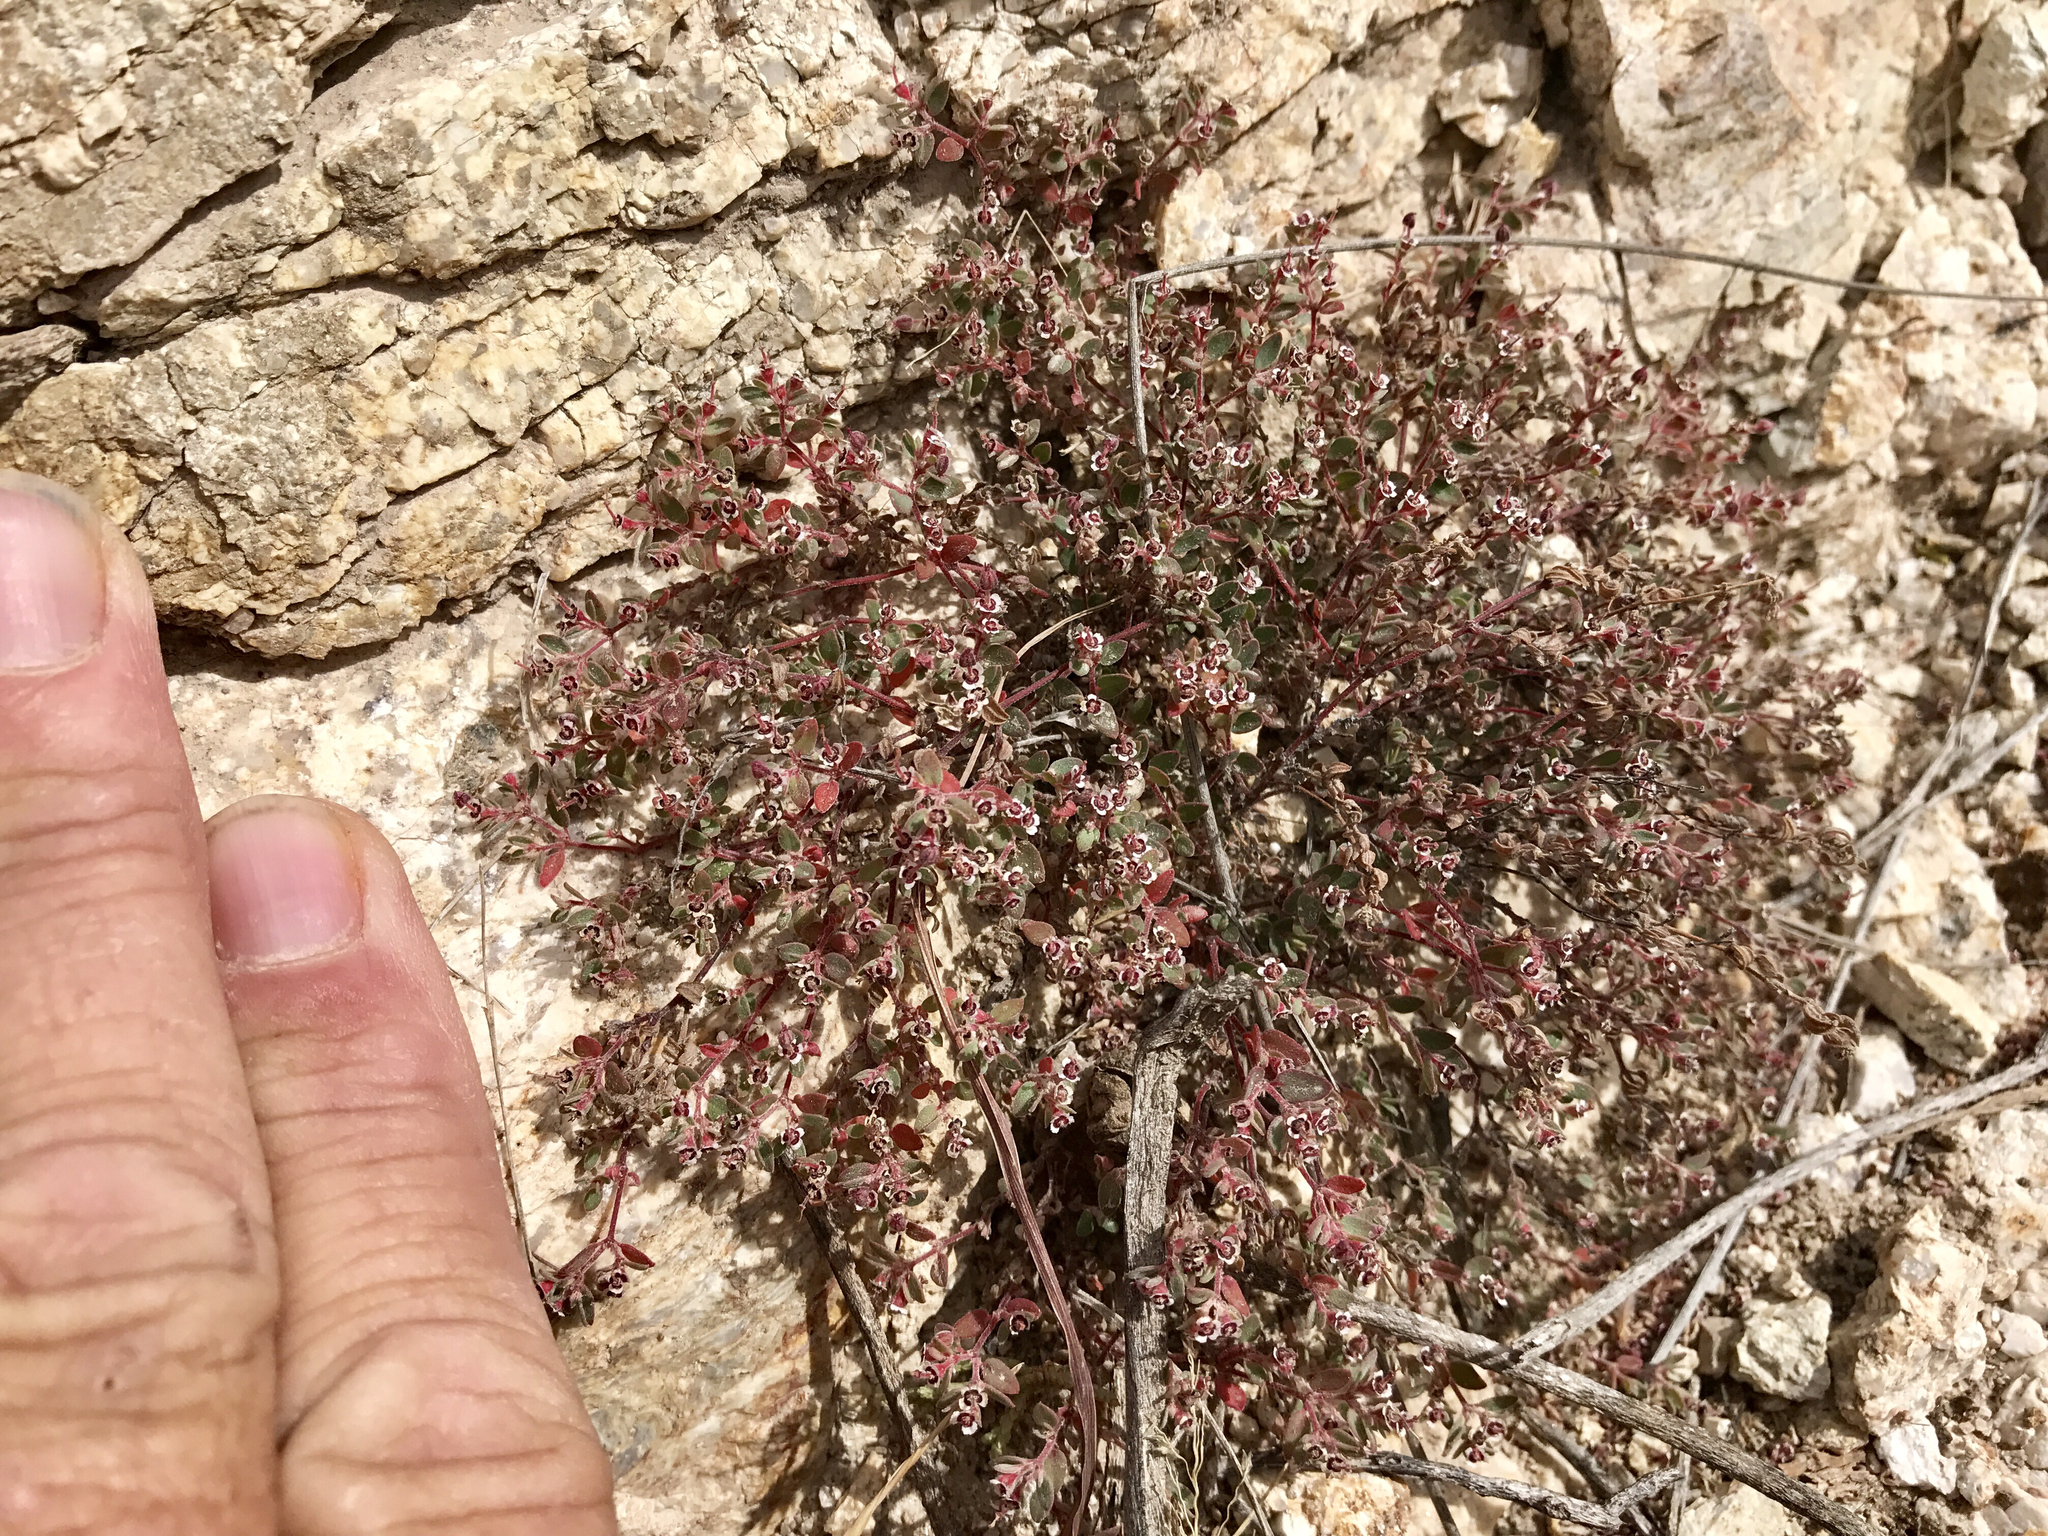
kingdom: Plantae
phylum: Tracheophyta
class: Magnoliopsida
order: Malpighiales
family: Euphorbiaceae
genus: Euphorbia
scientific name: Euphorbia melanadenia
